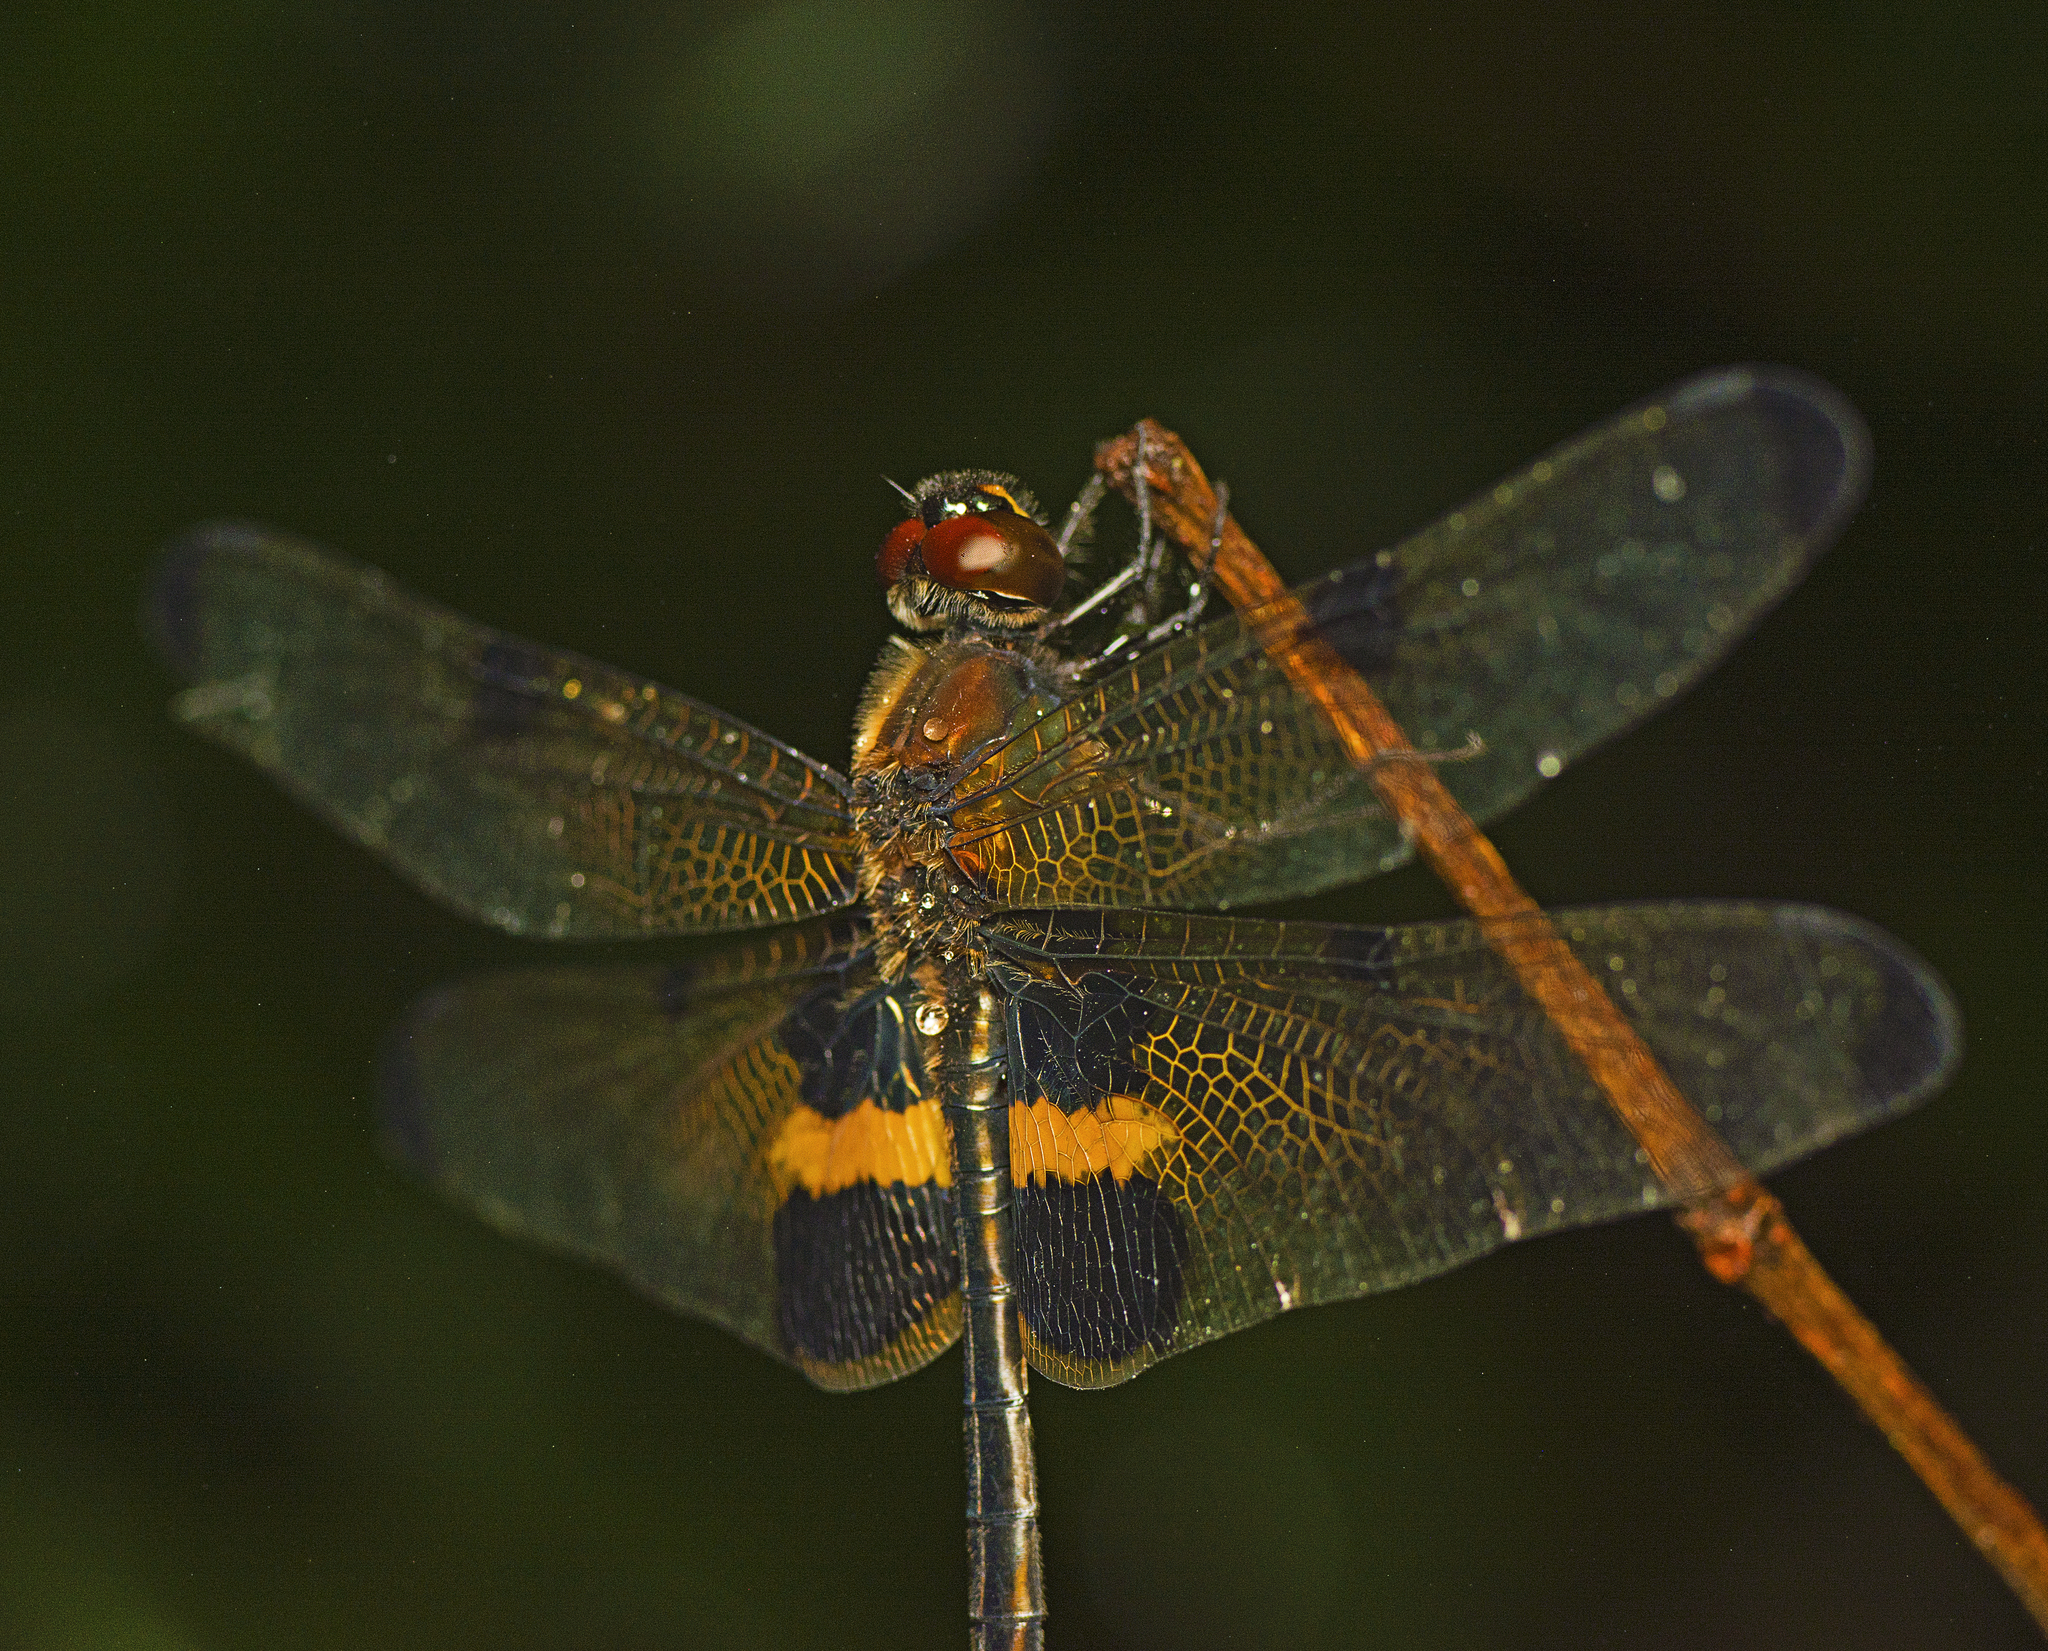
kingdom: Animalia
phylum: Arthropoda
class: Insecta
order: Odonata
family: Libellulidae
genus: Rhyothemis
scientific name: Rhyothemis phyllis
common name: Yellow-barred flutterer
